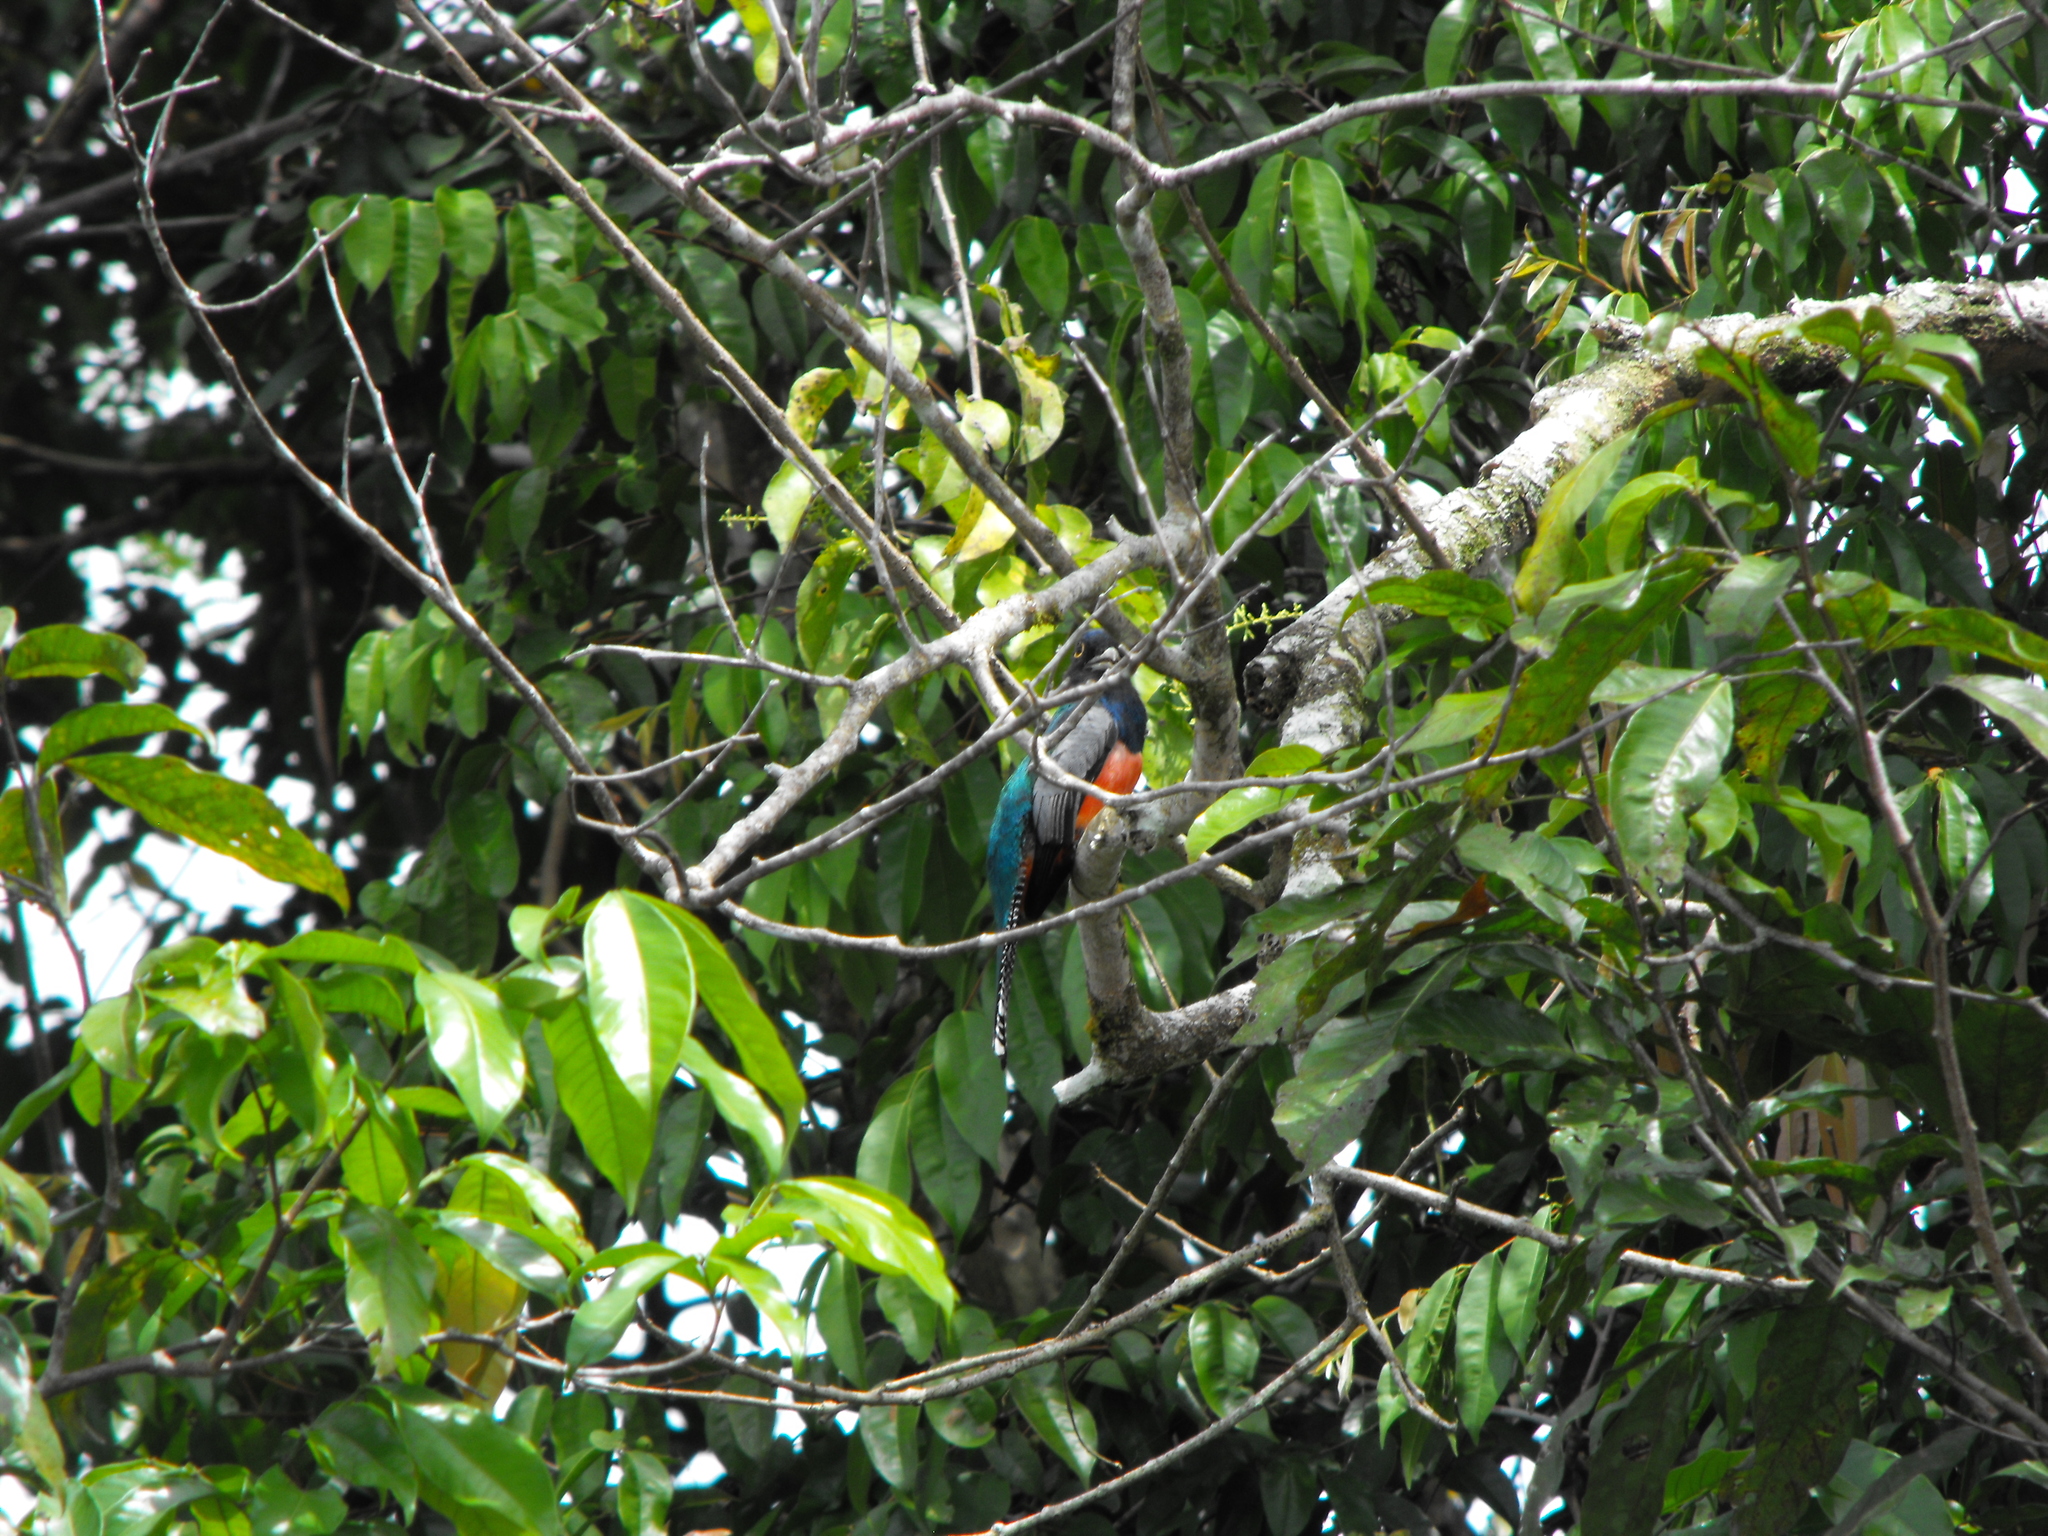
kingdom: Animalia
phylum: Chordata
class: Aves
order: Trogoniformes
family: Trogonidae
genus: Trogon
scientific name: Trogon curucui
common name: Blue-crowned trogon
